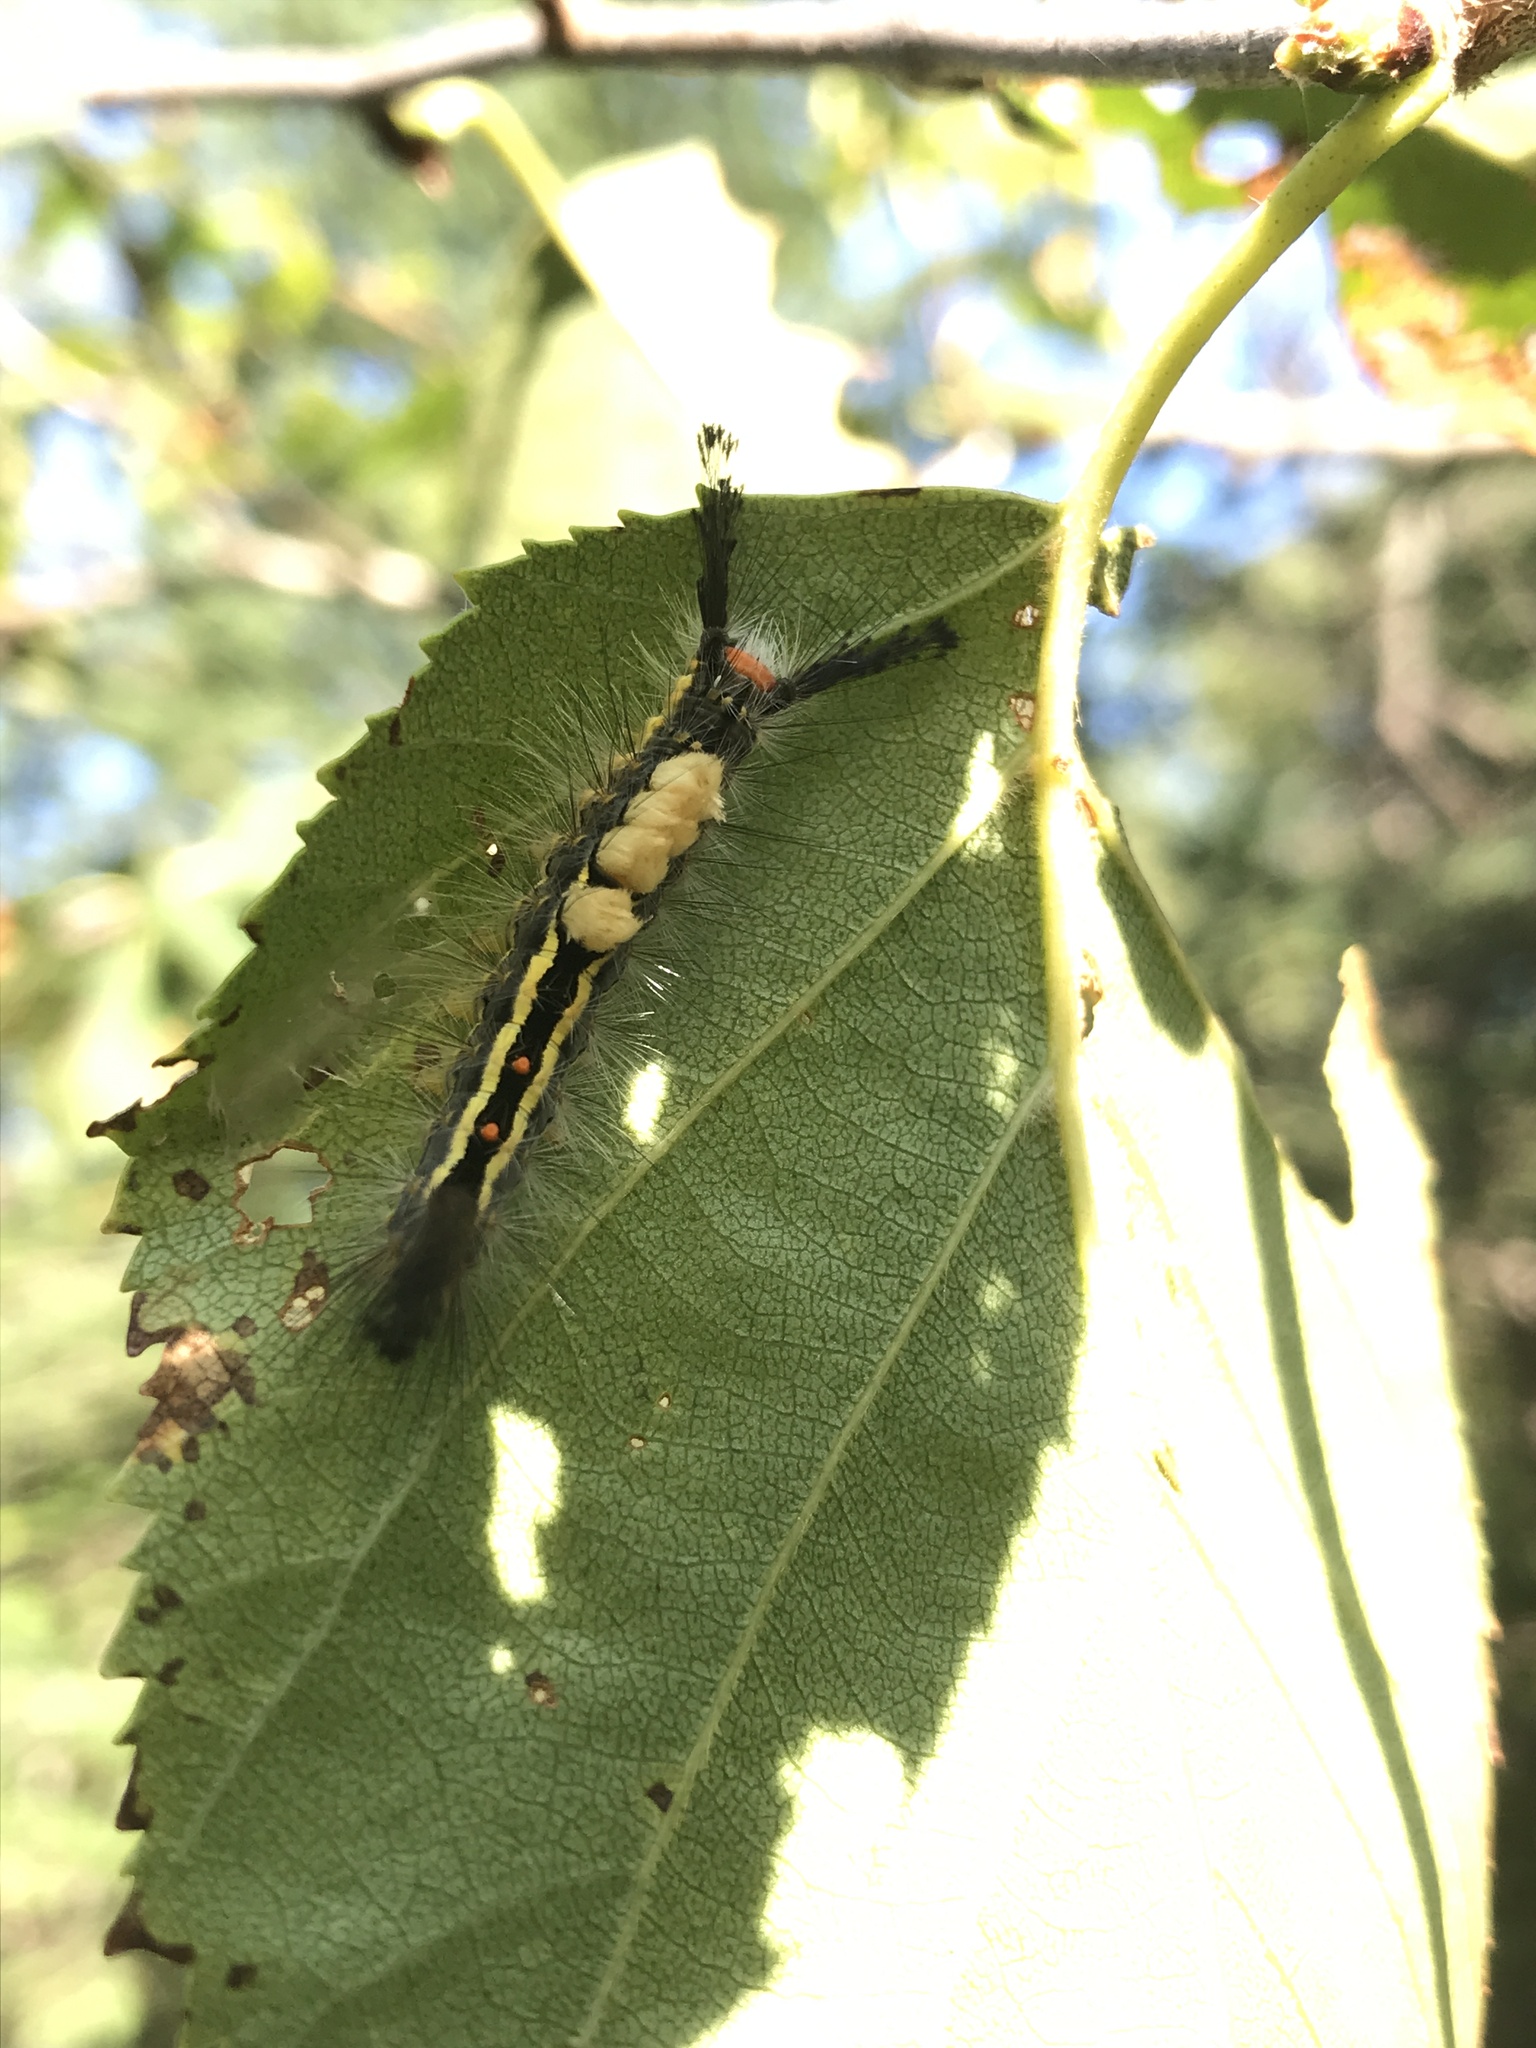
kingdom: Animalia
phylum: Arthropoda
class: Insecta
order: Lepidoptera
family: Erebidae
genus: Orgyia
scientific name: Orgyia leucostigma
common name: White-marked tussock moth
